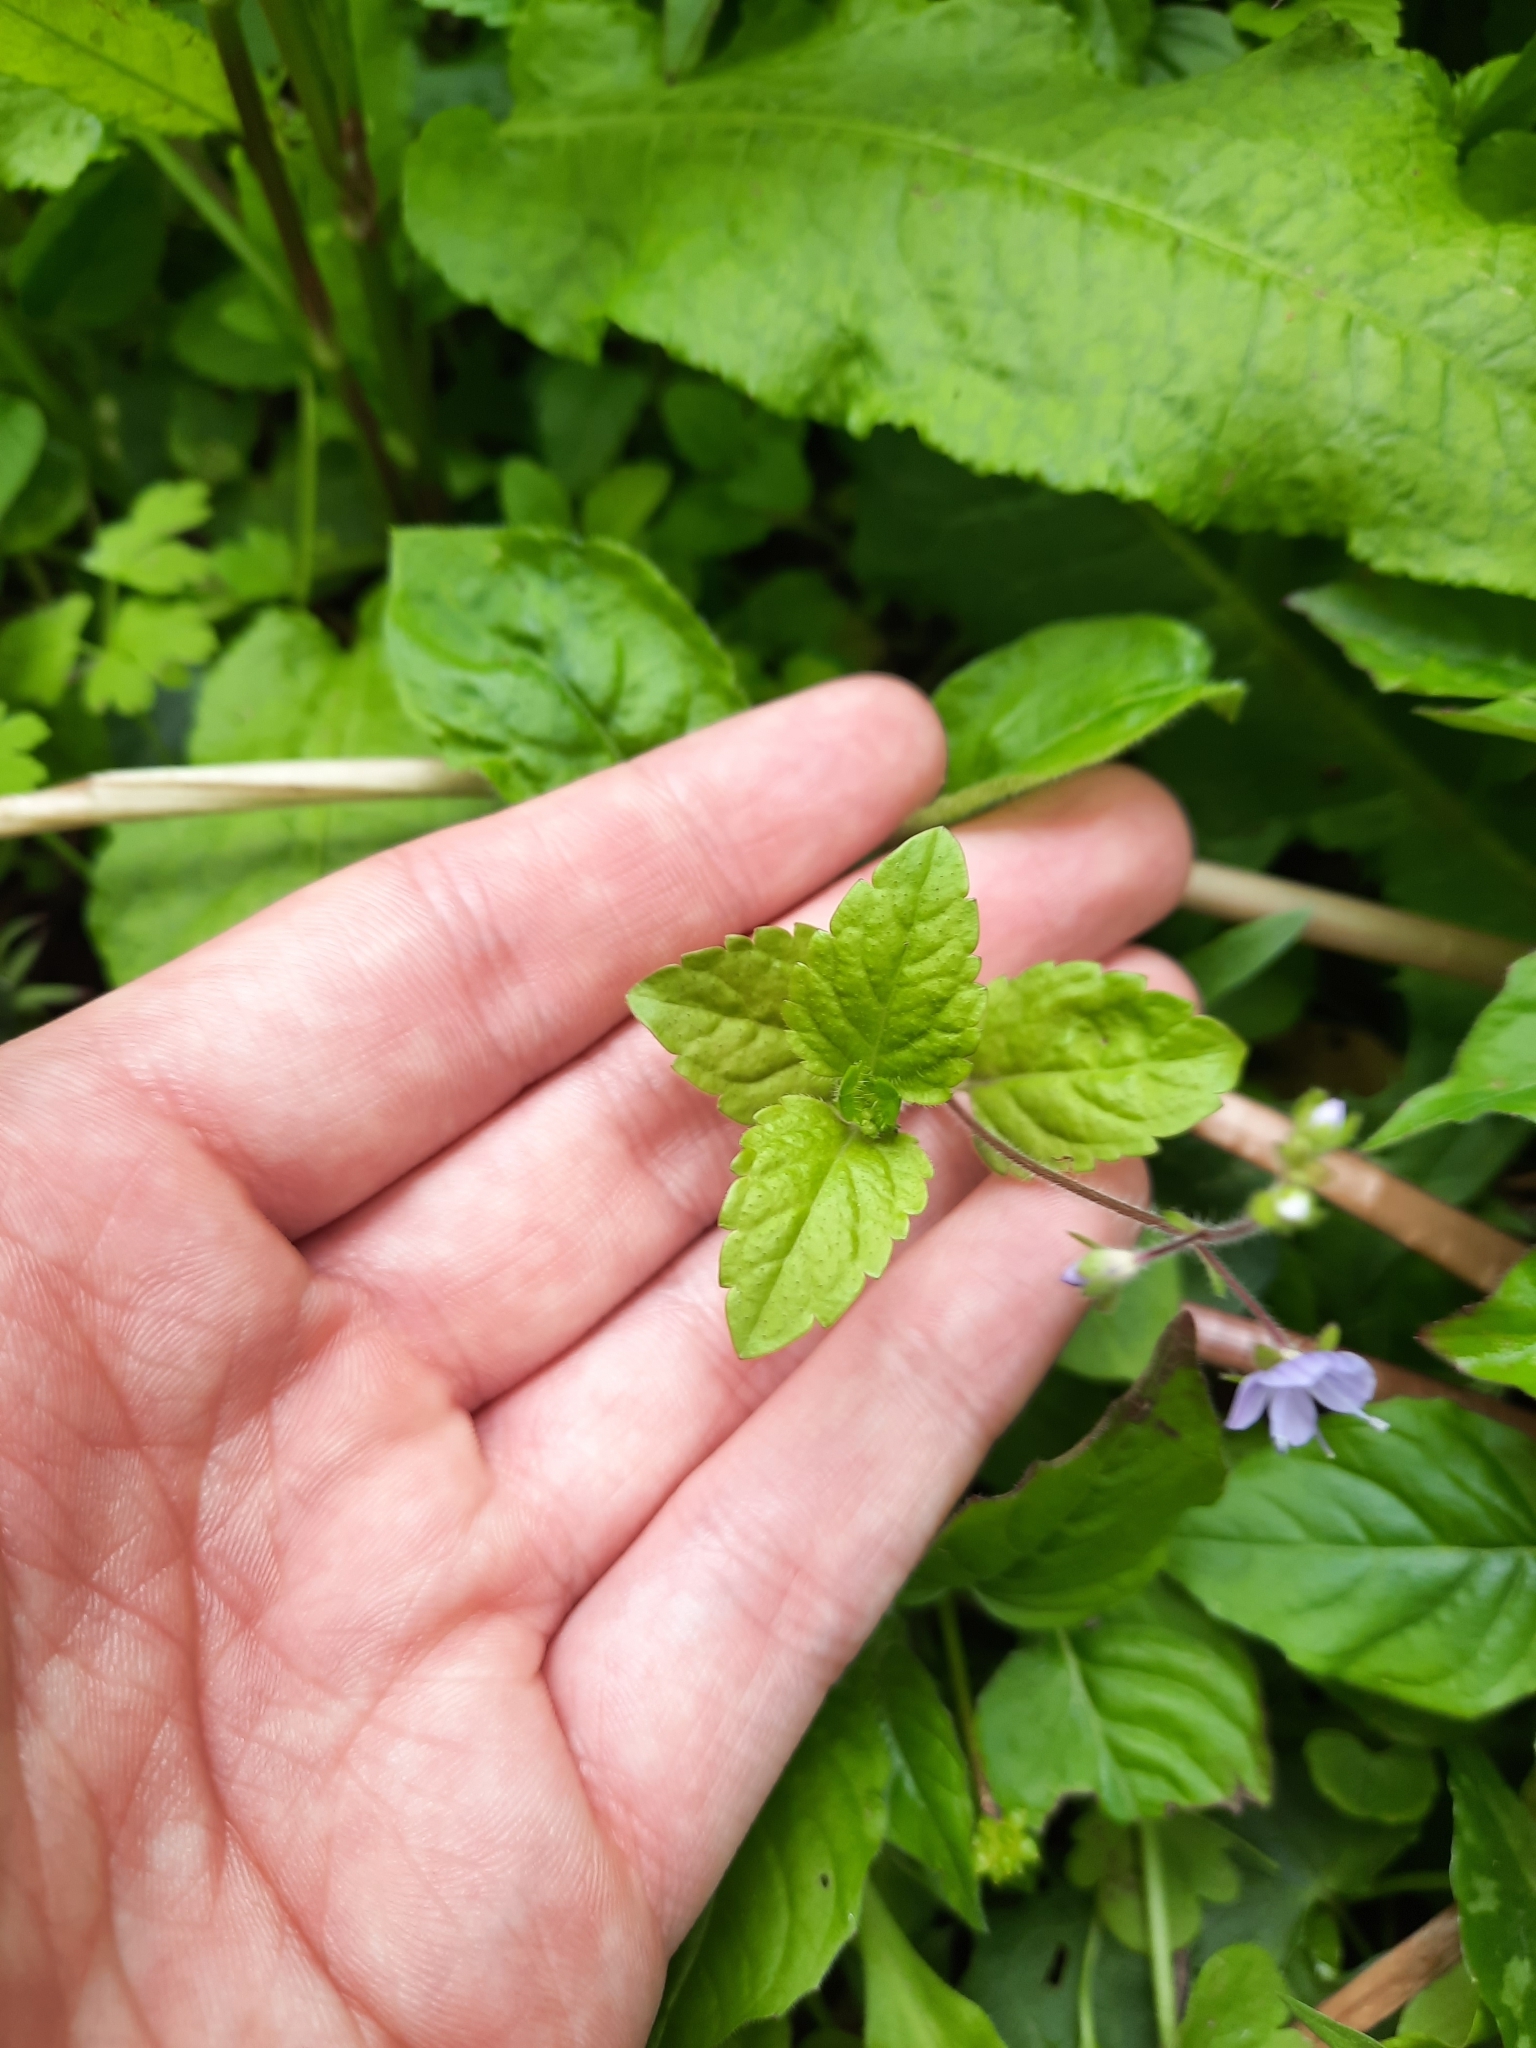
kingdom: Plantae
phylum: Tracheophyta
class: Magnoliopsida
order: Lamiales
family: Plantaginaceae
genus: Veronica
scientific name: Veronica montana
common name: Wood speedwell
